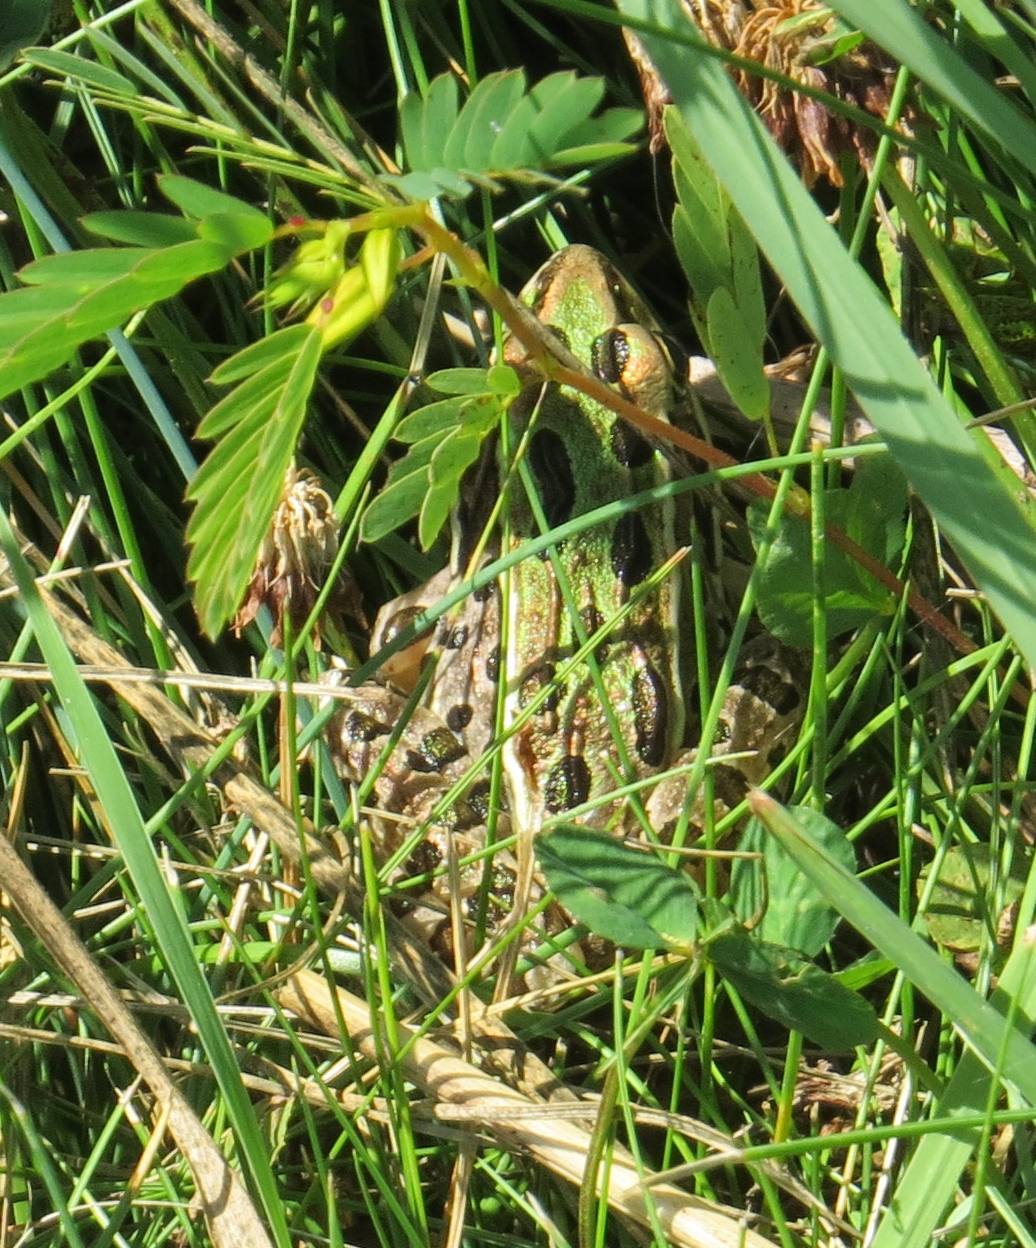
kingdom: Animalia
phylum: Chordata
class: Amphibia
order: Anura
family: Ranidae
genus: Lithobates
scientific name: Lithobates pipiens
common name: Northern leopard frog
